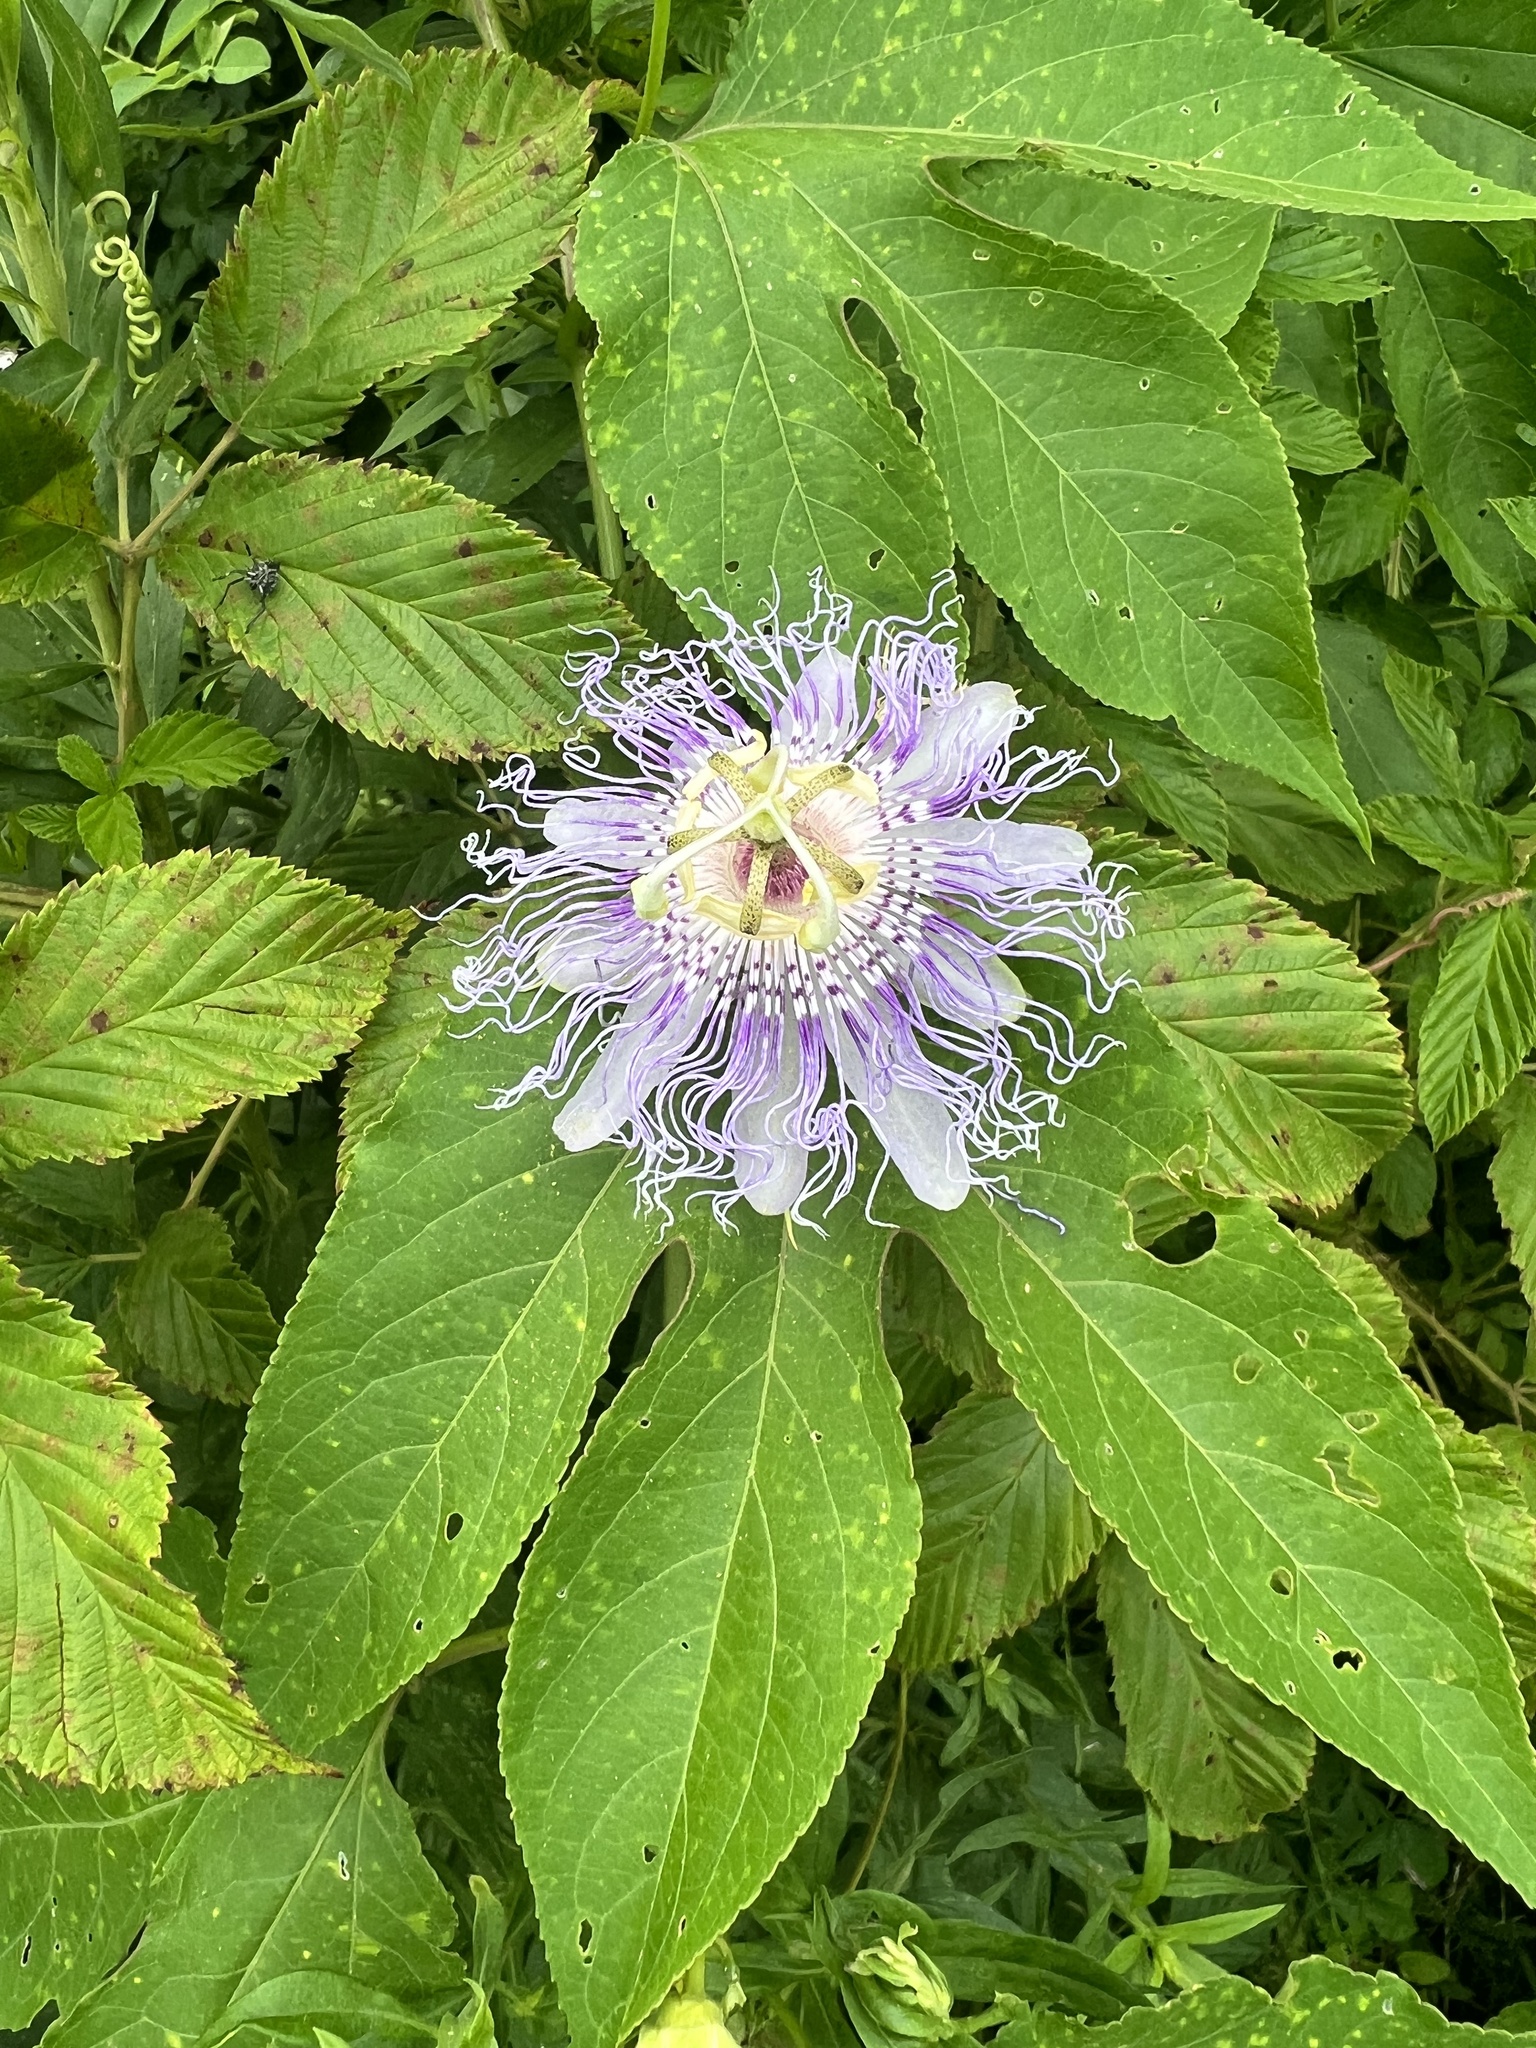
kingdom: Plantae
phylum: Tracheophyta
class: Magnoliopsida
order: Malpighiales
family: Passifloraceae
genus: Passiflora
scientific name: Passiflora incarnata
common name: Apricot-vine
